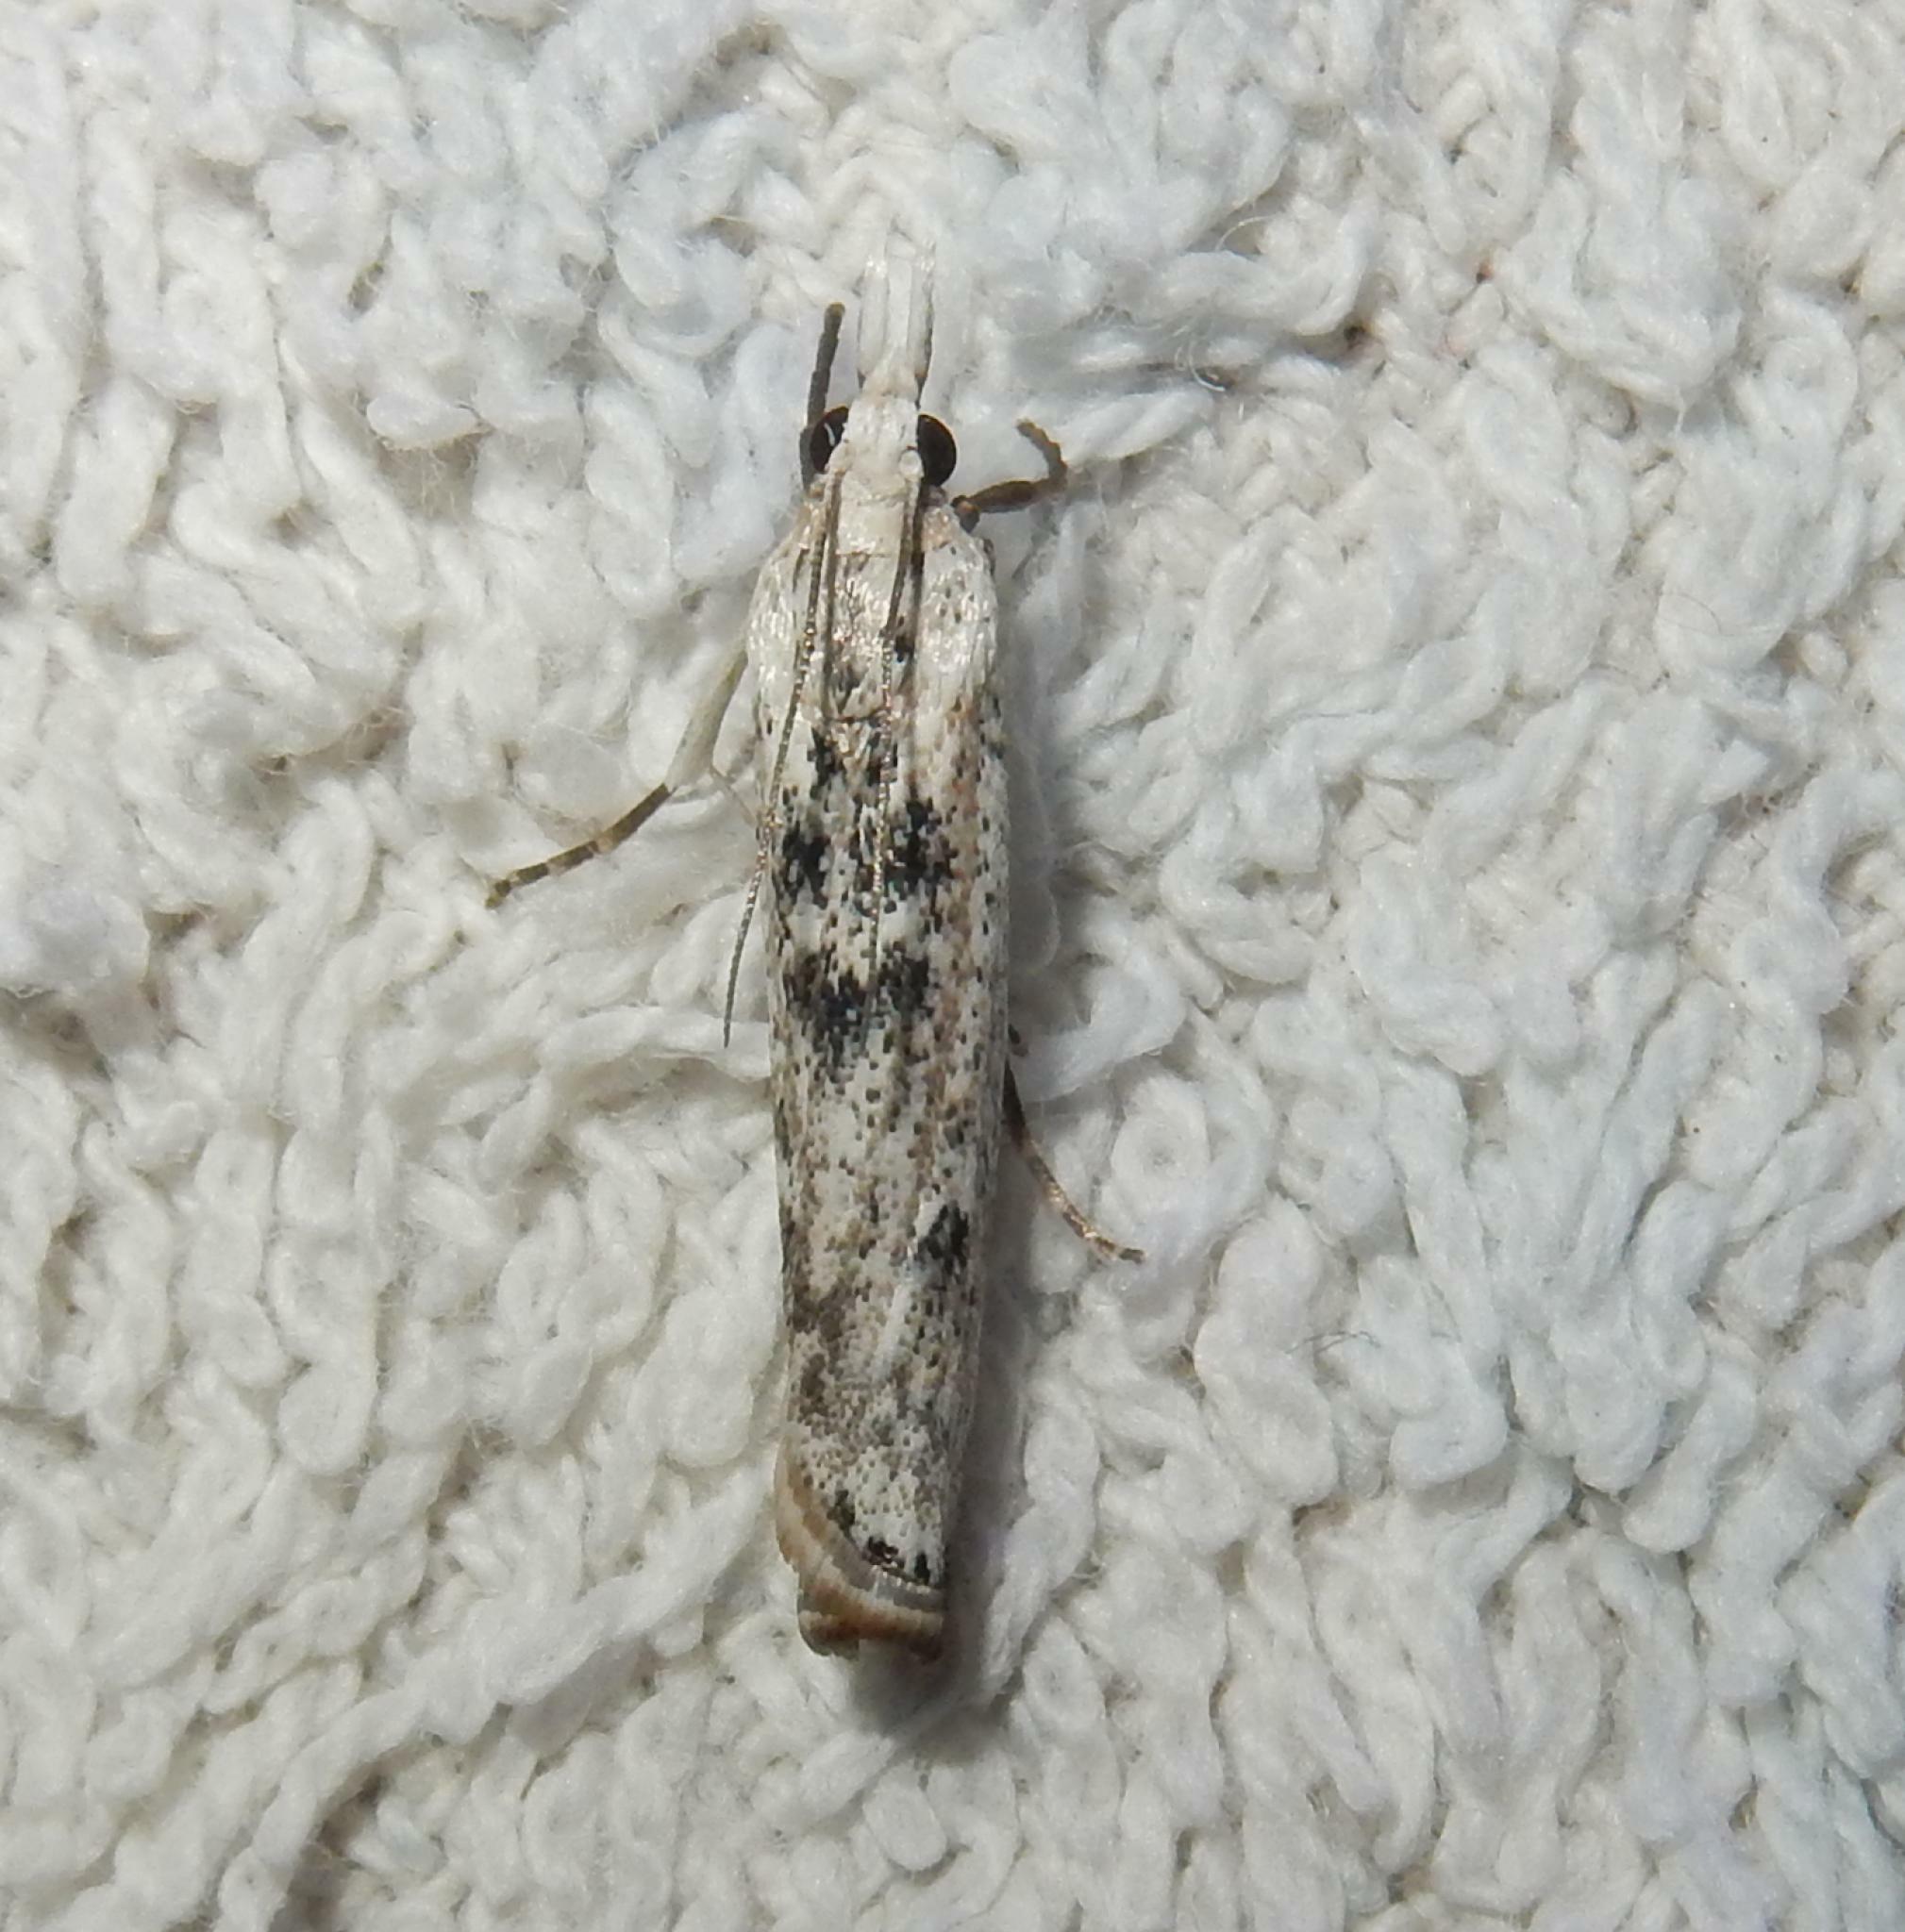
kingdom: Animalia
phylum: Arthropoda
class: Insecta
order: Lepidoptera
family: Crambidae
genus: Crambus
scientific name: Crambus sparsellus
